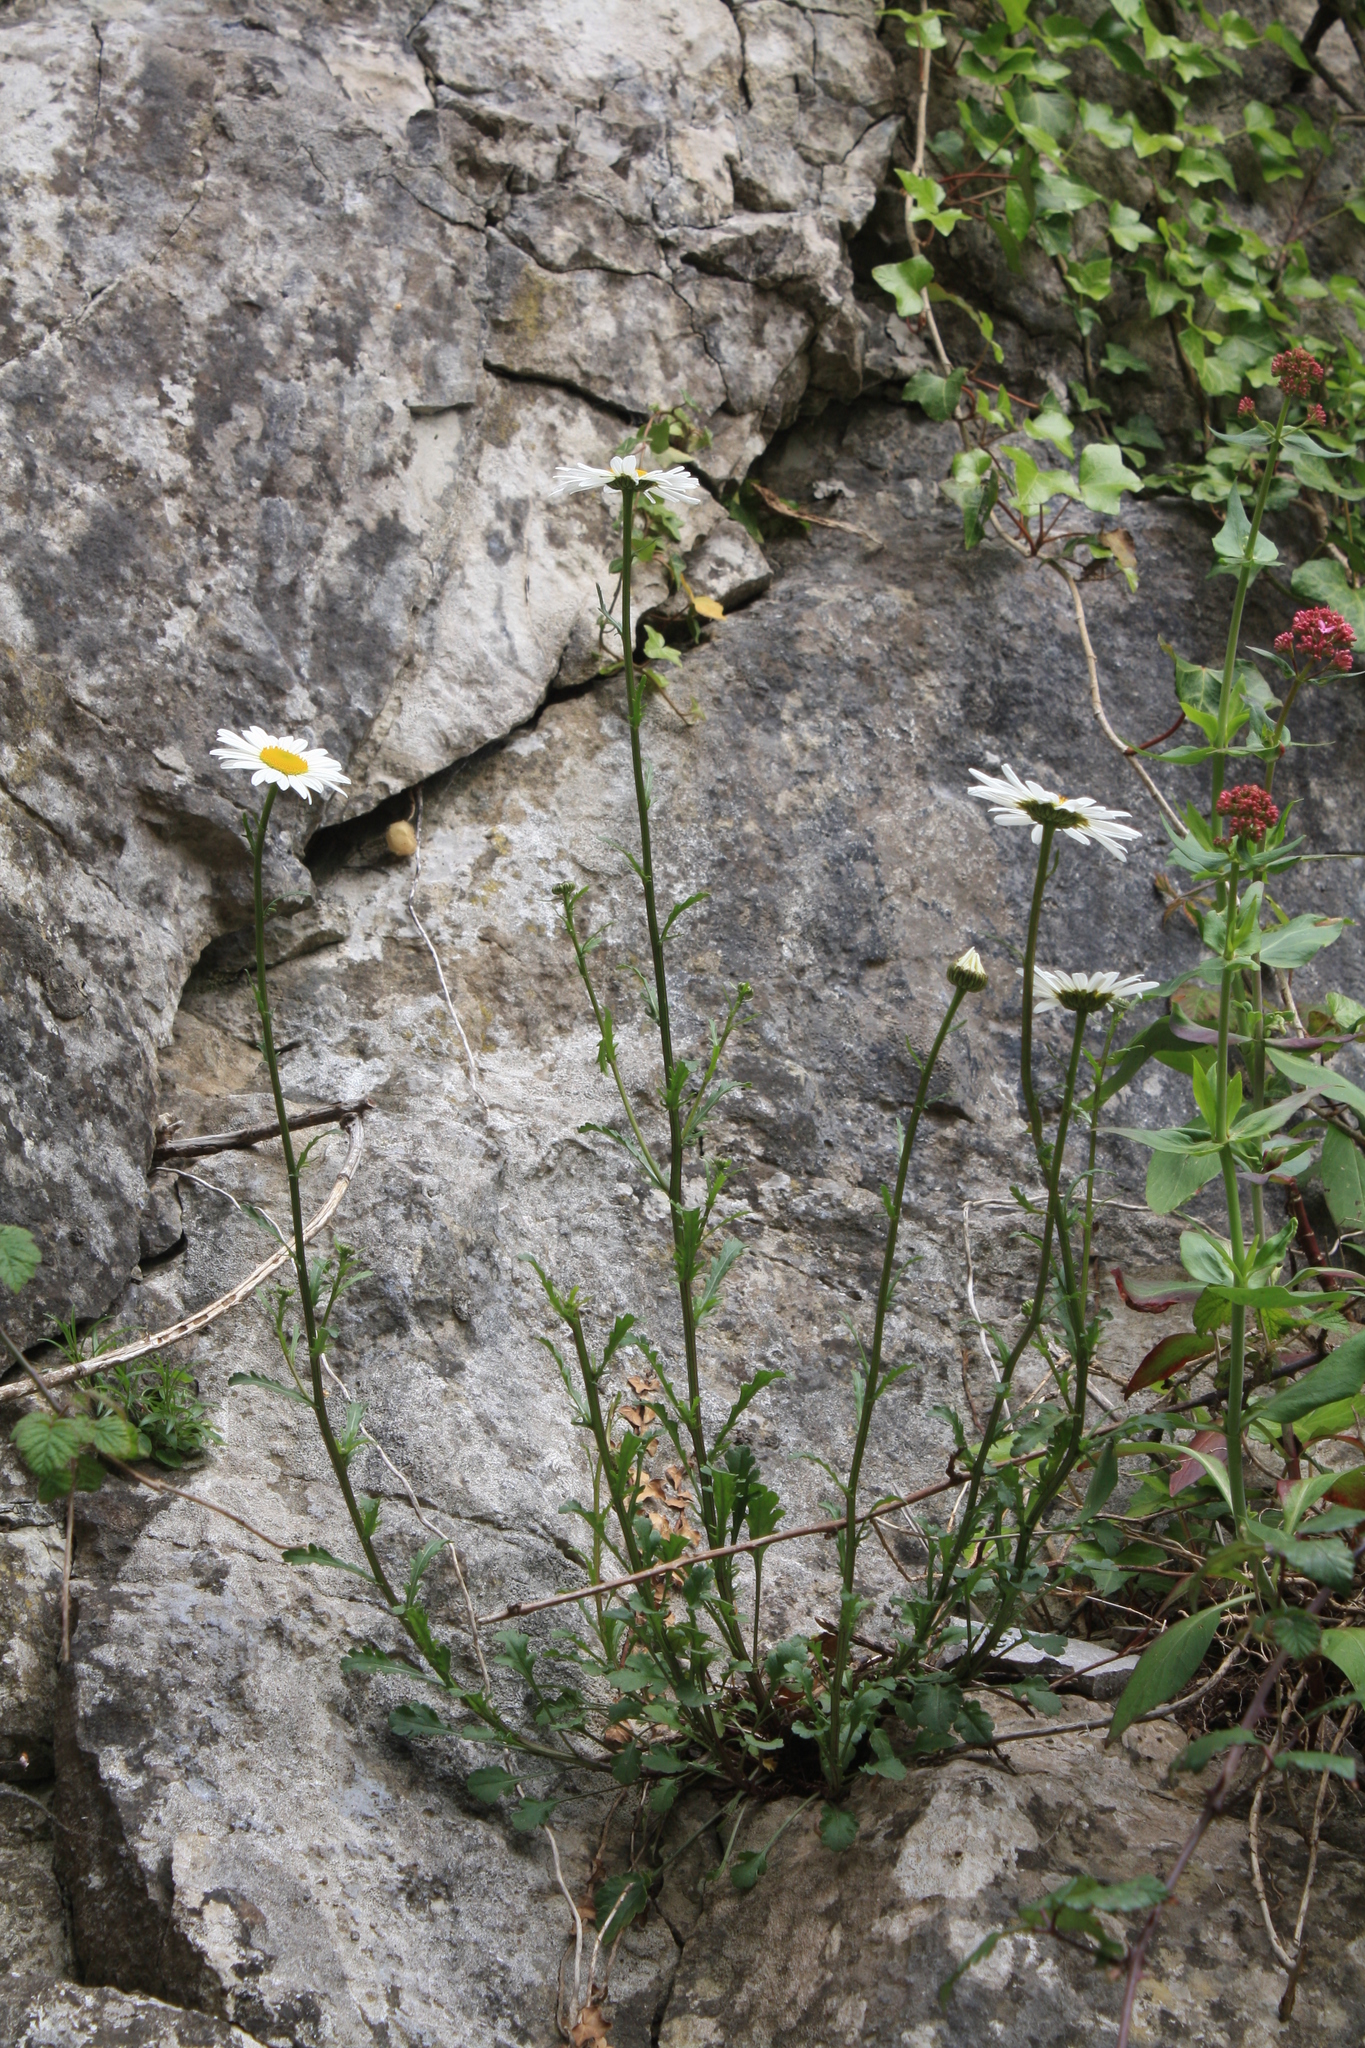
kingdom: Plantae
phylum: Tracheophyta
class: Magnoliopsida
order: Asterales
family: Asteraceae
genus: Leucanthemum
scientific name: Leucanthemum vulgare
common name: Oxeye daisy
